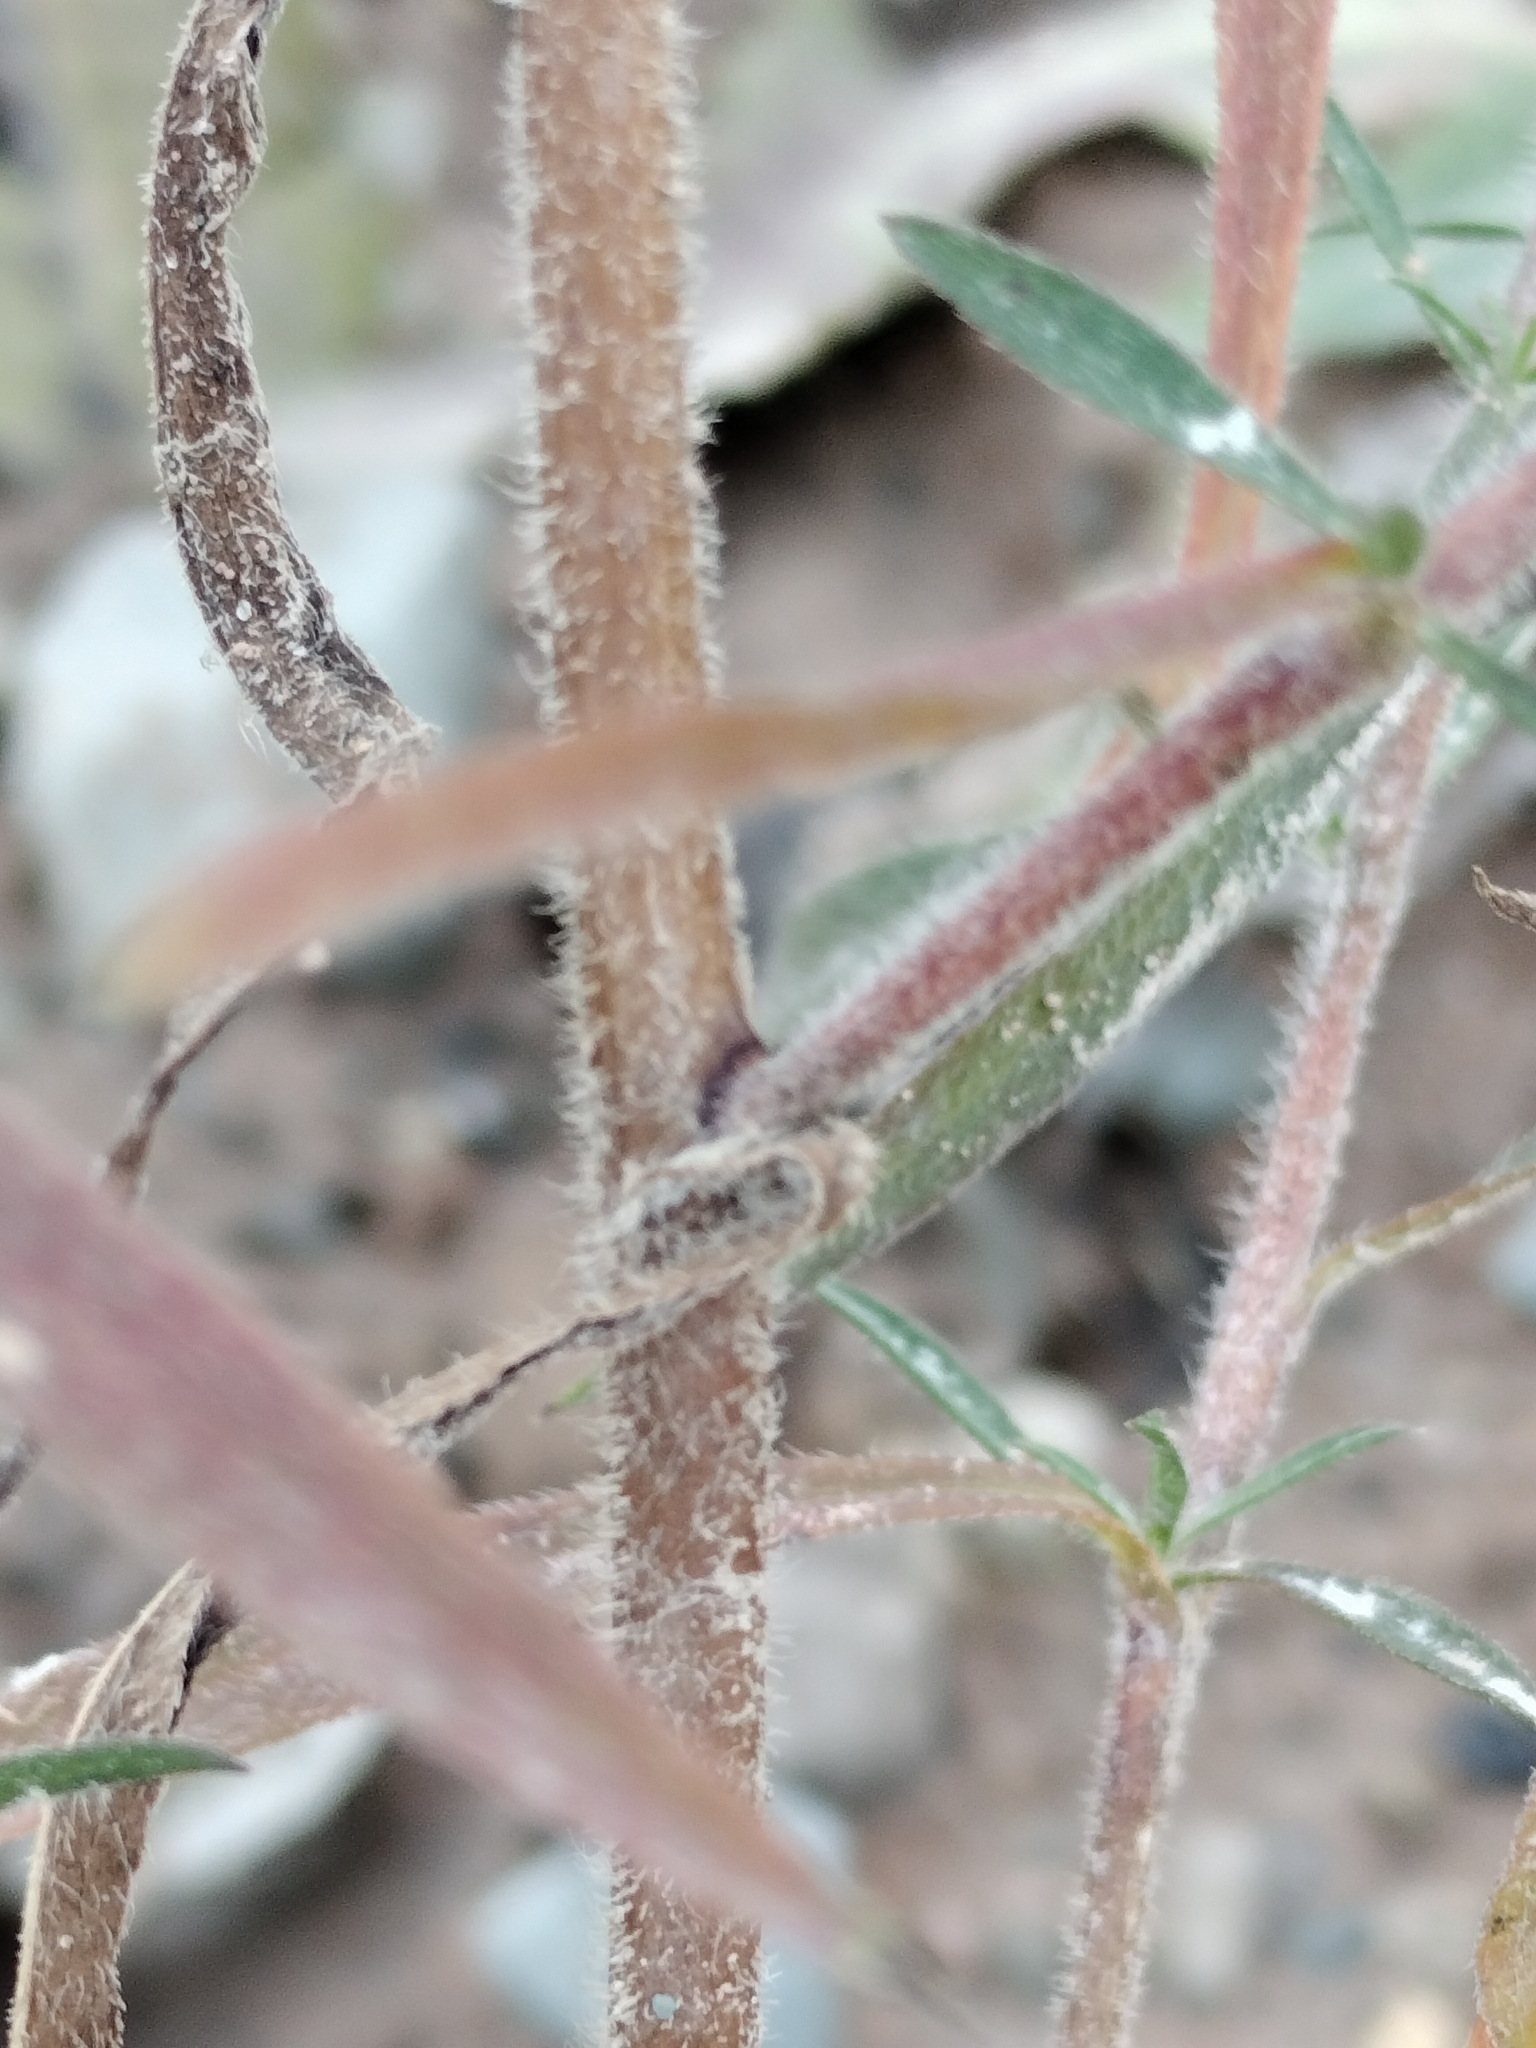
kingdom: Plantae
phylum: Tracheophyta
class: Magnoliopsida
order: Asterales
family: Asteraceae
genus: Symphyotrichum
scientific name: Symphyotrichum pilosum
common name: Awl aster
